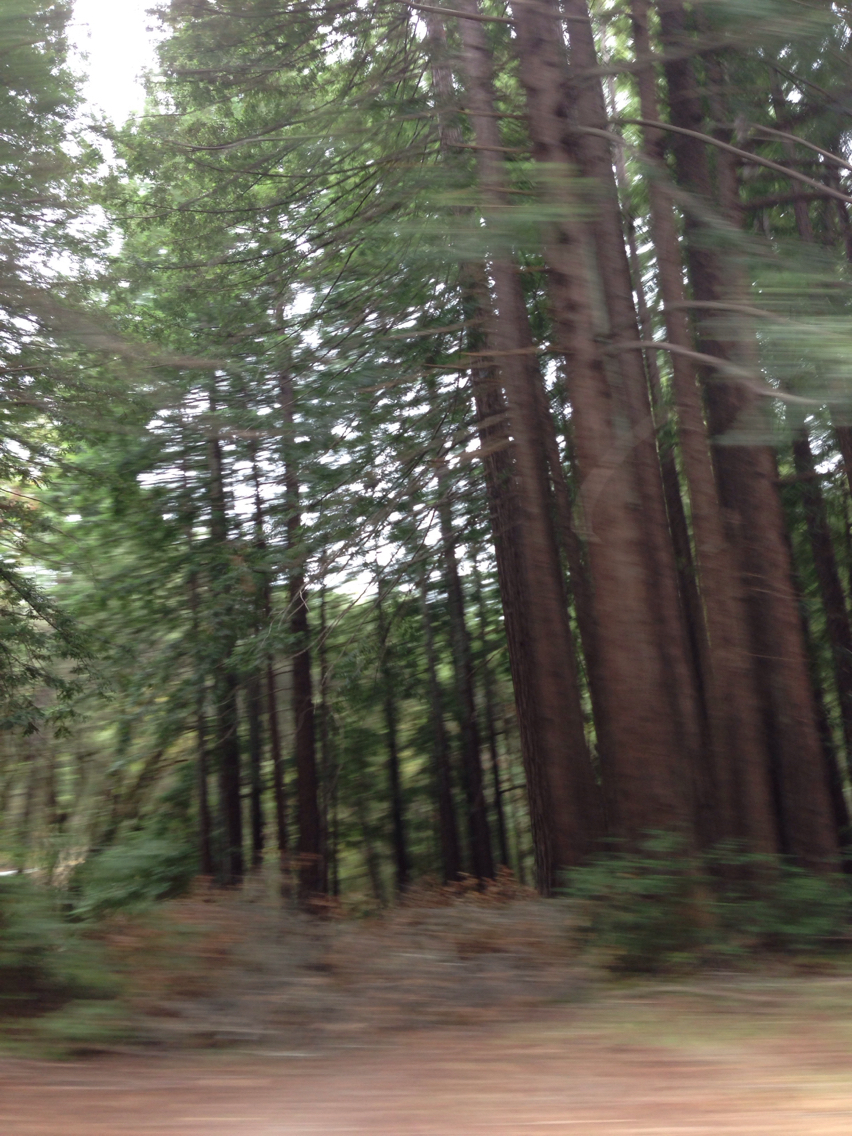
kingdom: Plantae
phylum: Tracheophyta
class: Pinopsida
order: Pinales
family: Cupressaceae
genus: Sequoia
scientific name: Sequoia sempervirens
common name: Coast redwood
